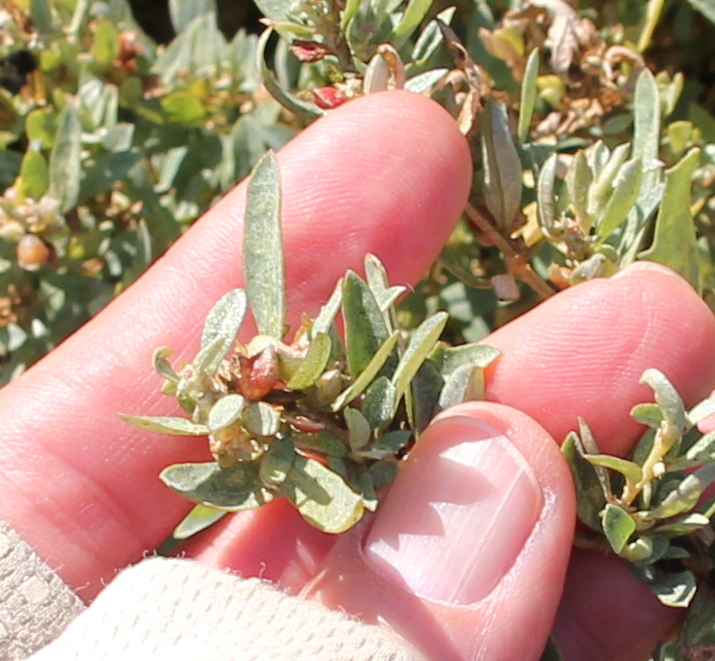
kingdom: Plantae
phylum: Tracheophyta
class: Magnoliopsida
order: Caryophyllales
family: Amaranthaceae
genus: Atriplex
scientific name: Atriplex semibaccata
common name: Australian saltbush
